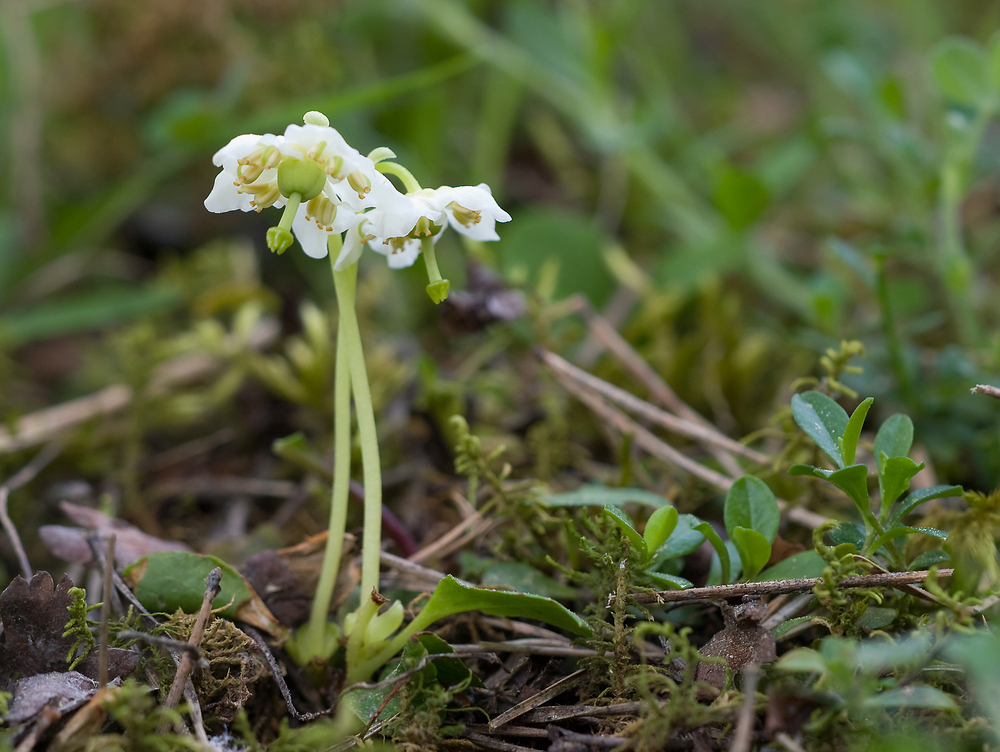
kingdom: Plantae
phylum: Tracheophyta
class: Magnoliopsida
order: Ericales
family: Ericaceae
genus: Moneses
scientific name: Moneses uniflora
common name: One-flowered wintergreen
